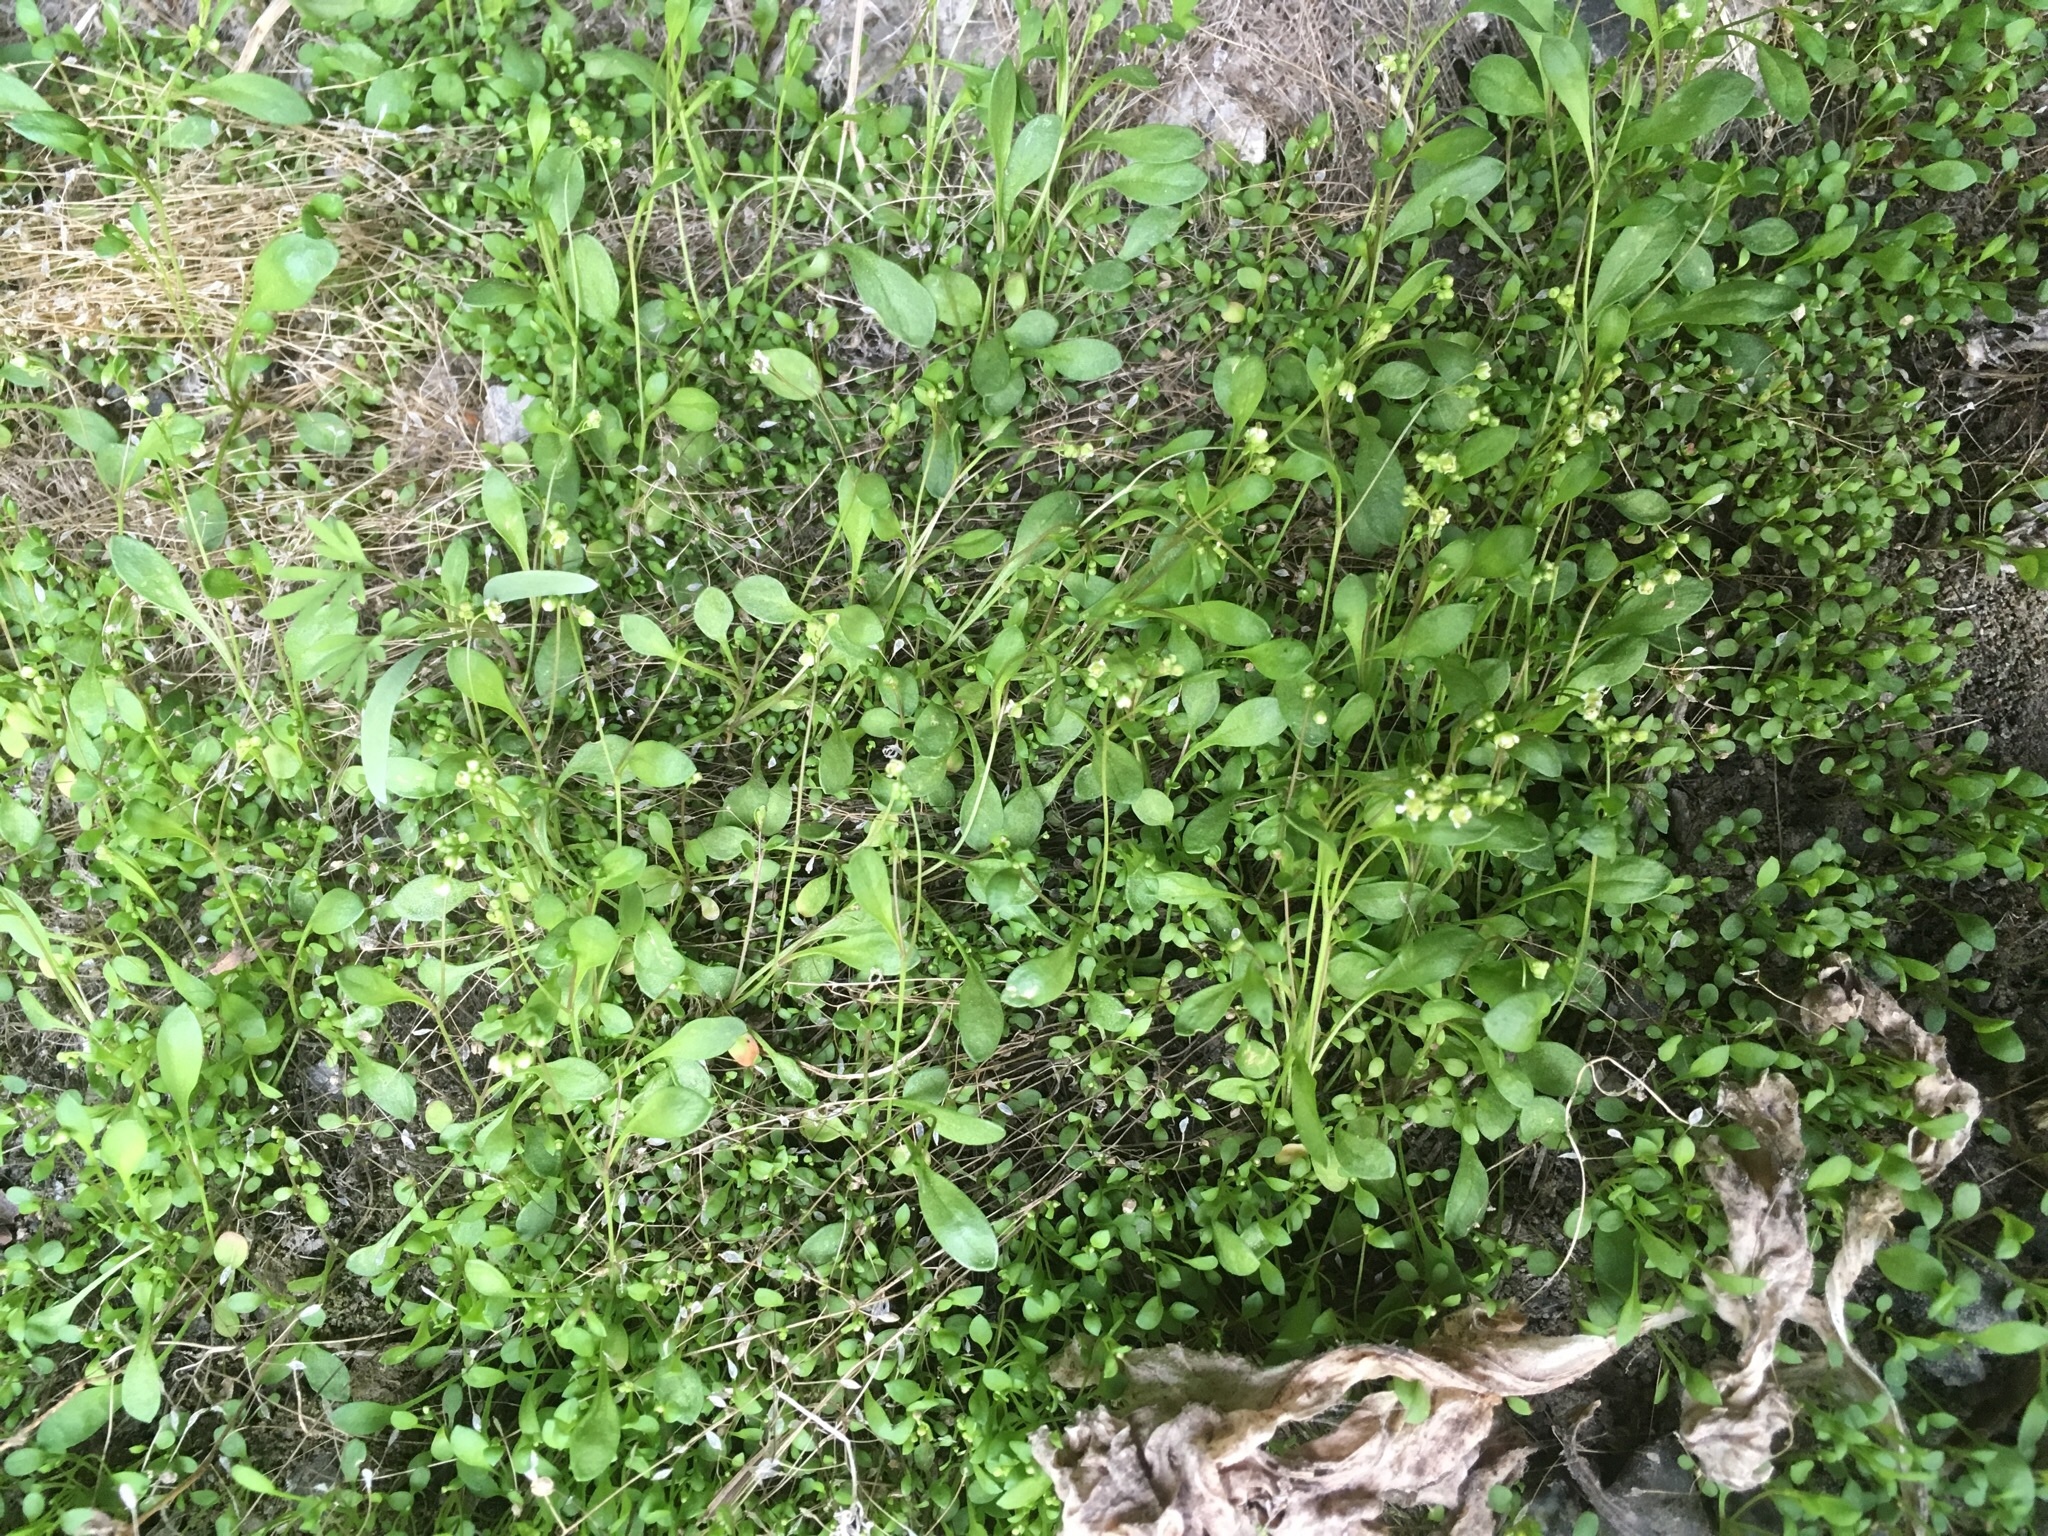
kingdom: Plantae
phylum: Tracheophyta
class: Magnoliopsida
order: Brassicales
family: Brassicaceae
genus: Hornungia
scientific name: Hornungia procumbens
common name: Oval purse
